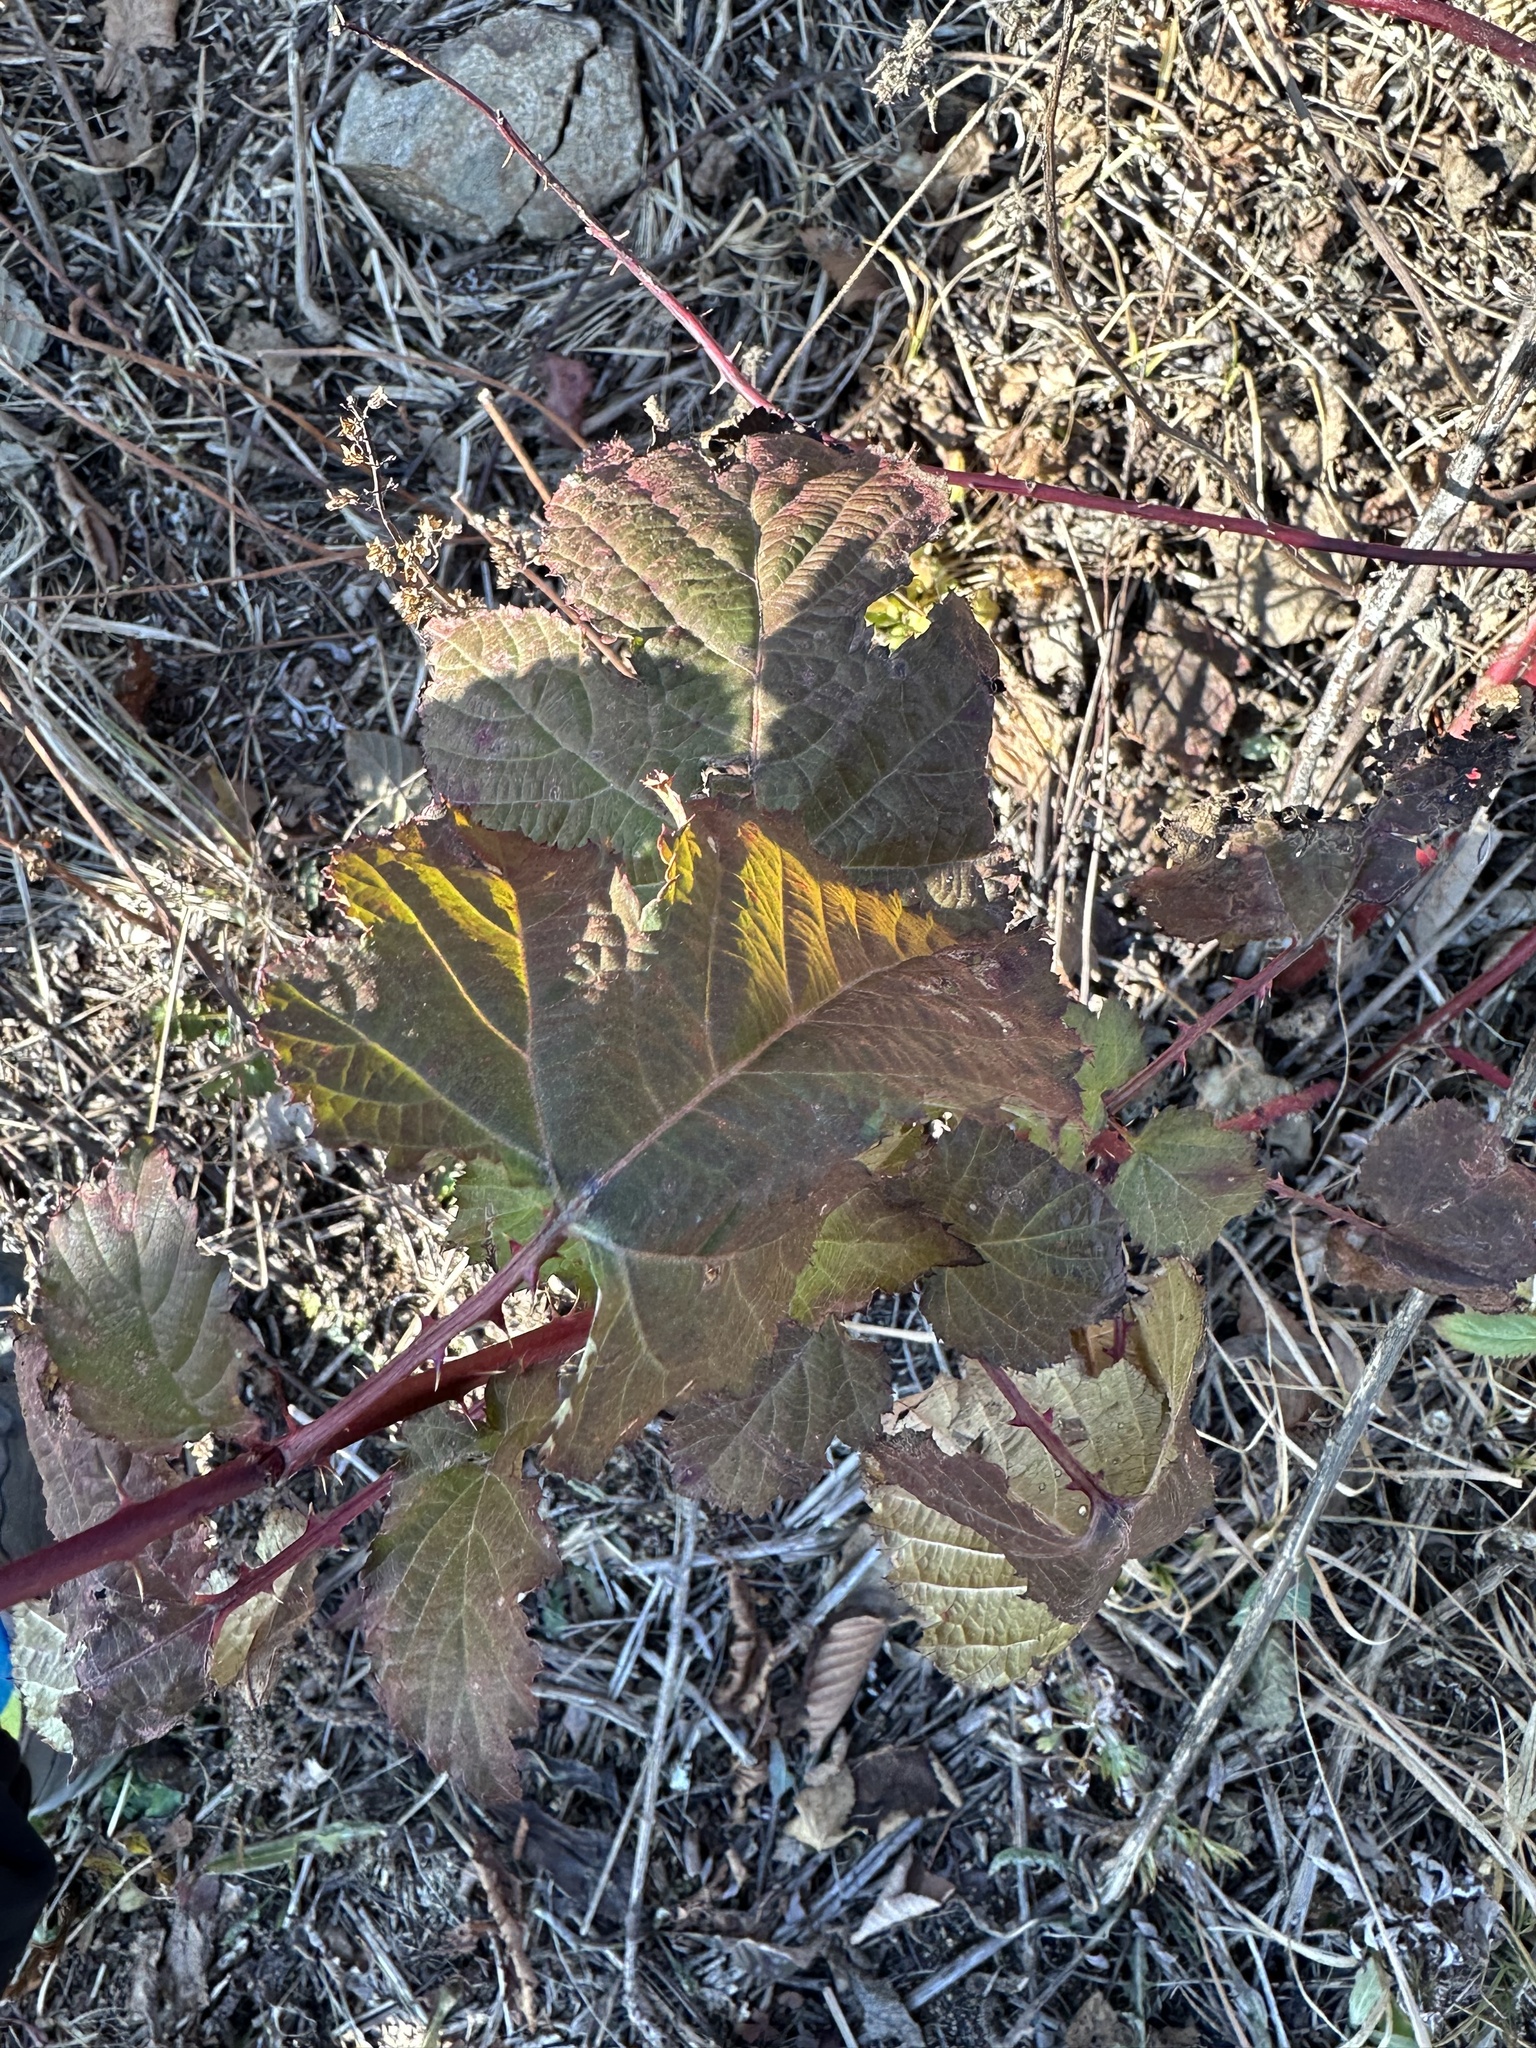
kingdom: Plantae
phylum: Tracheophyta
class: Magnoliopsida
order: Rosales
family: Rosaceae
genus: Rubus
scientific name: Rubus crataegifolius
